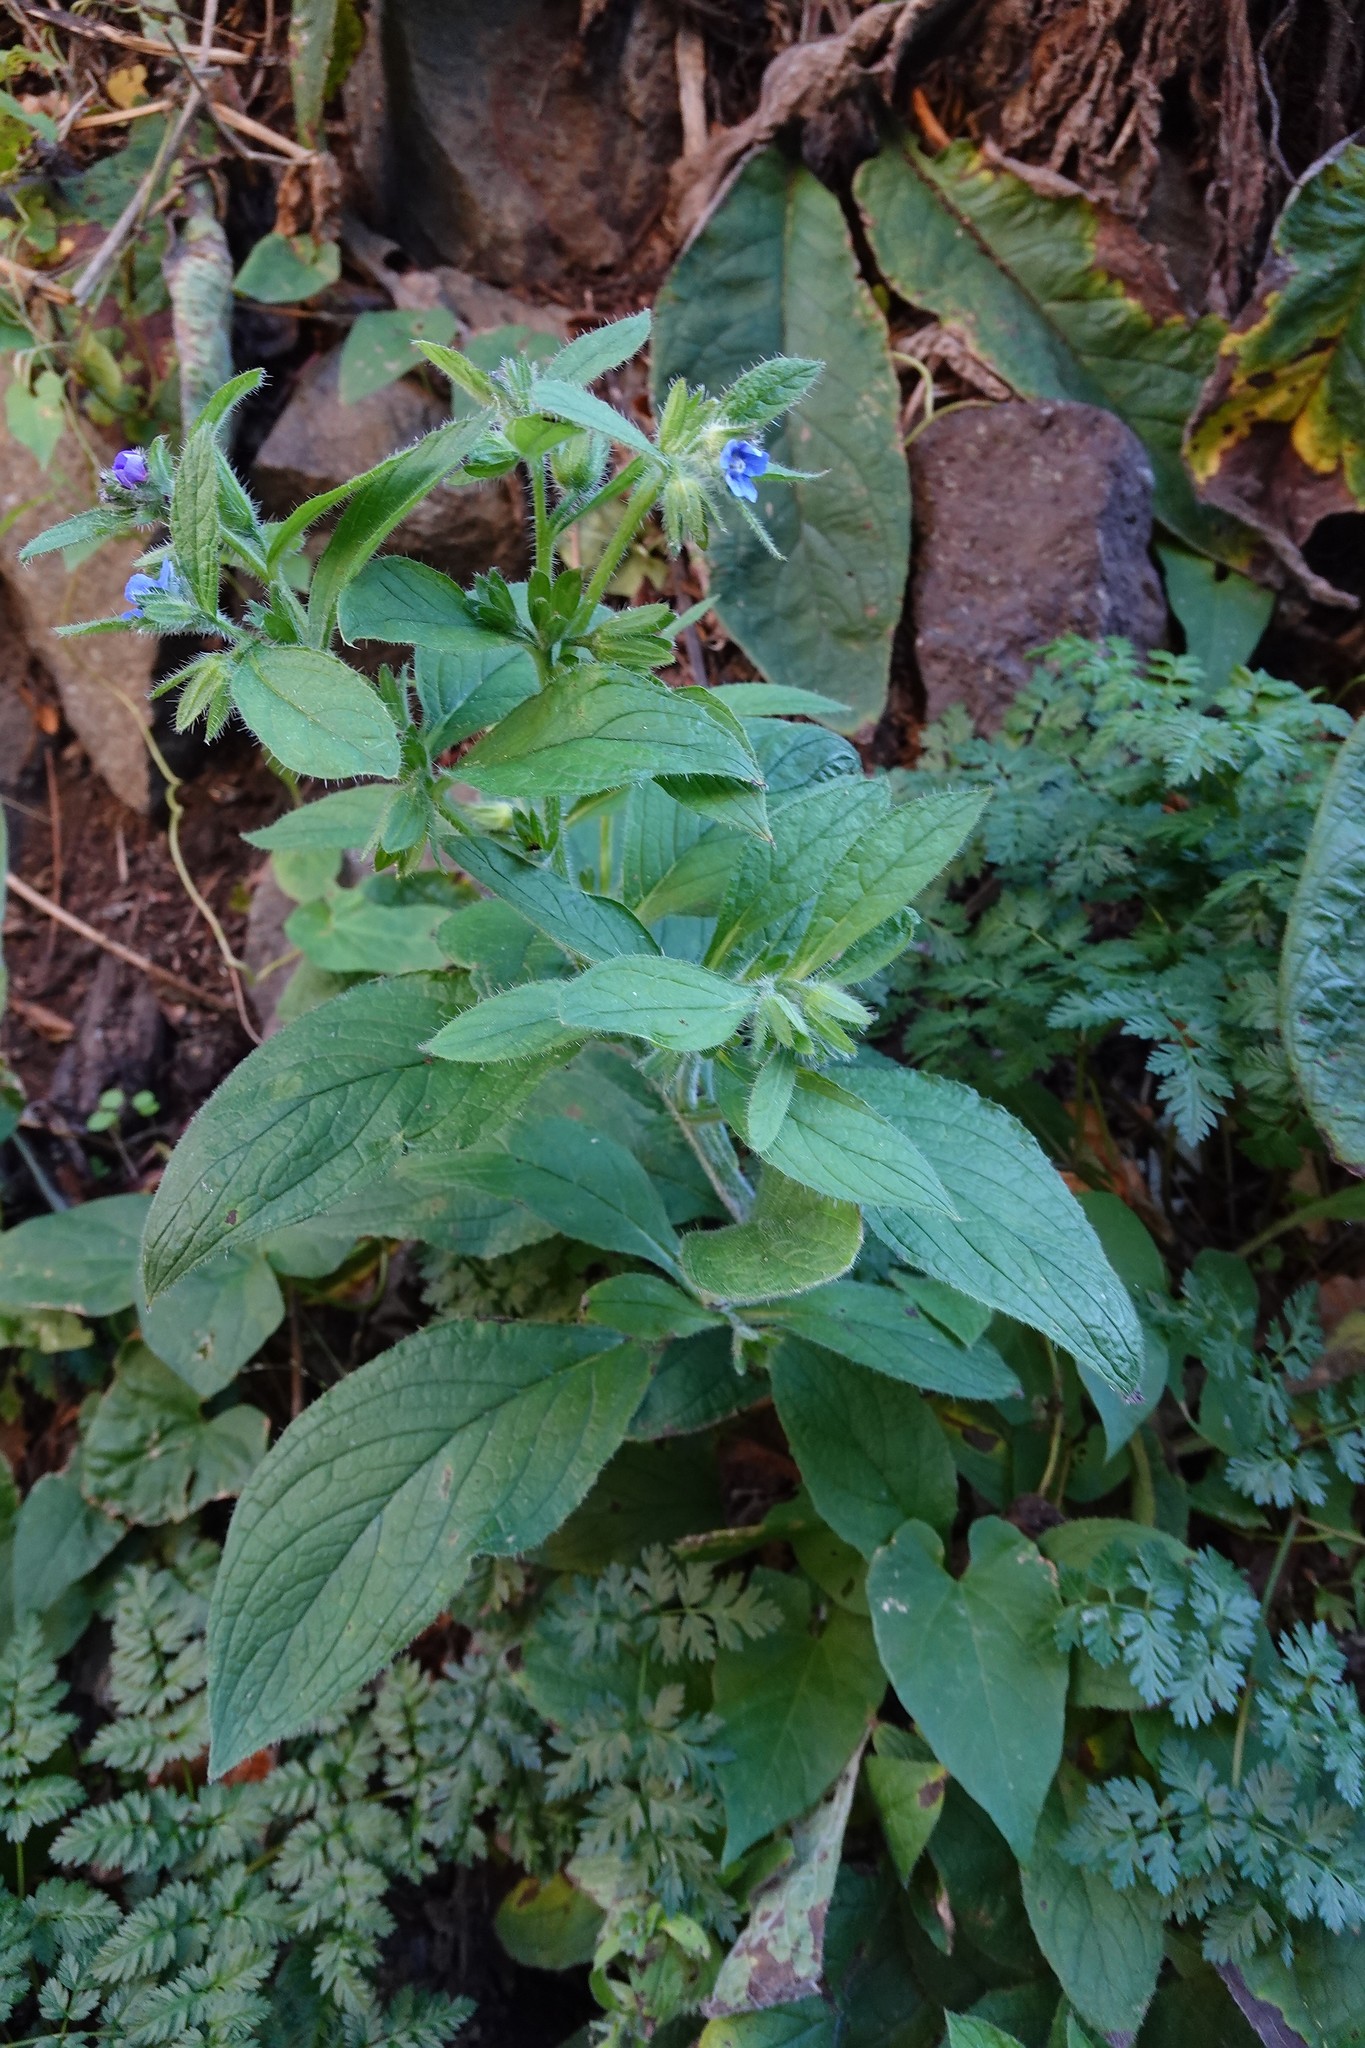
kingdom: Plantae
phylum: Tracheophyta
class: Magnoliopsida
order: Boraginales
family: Boraginaceae
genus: Pentaglottis
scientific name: Pentaglottis sempervirens
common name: Green alkanet
